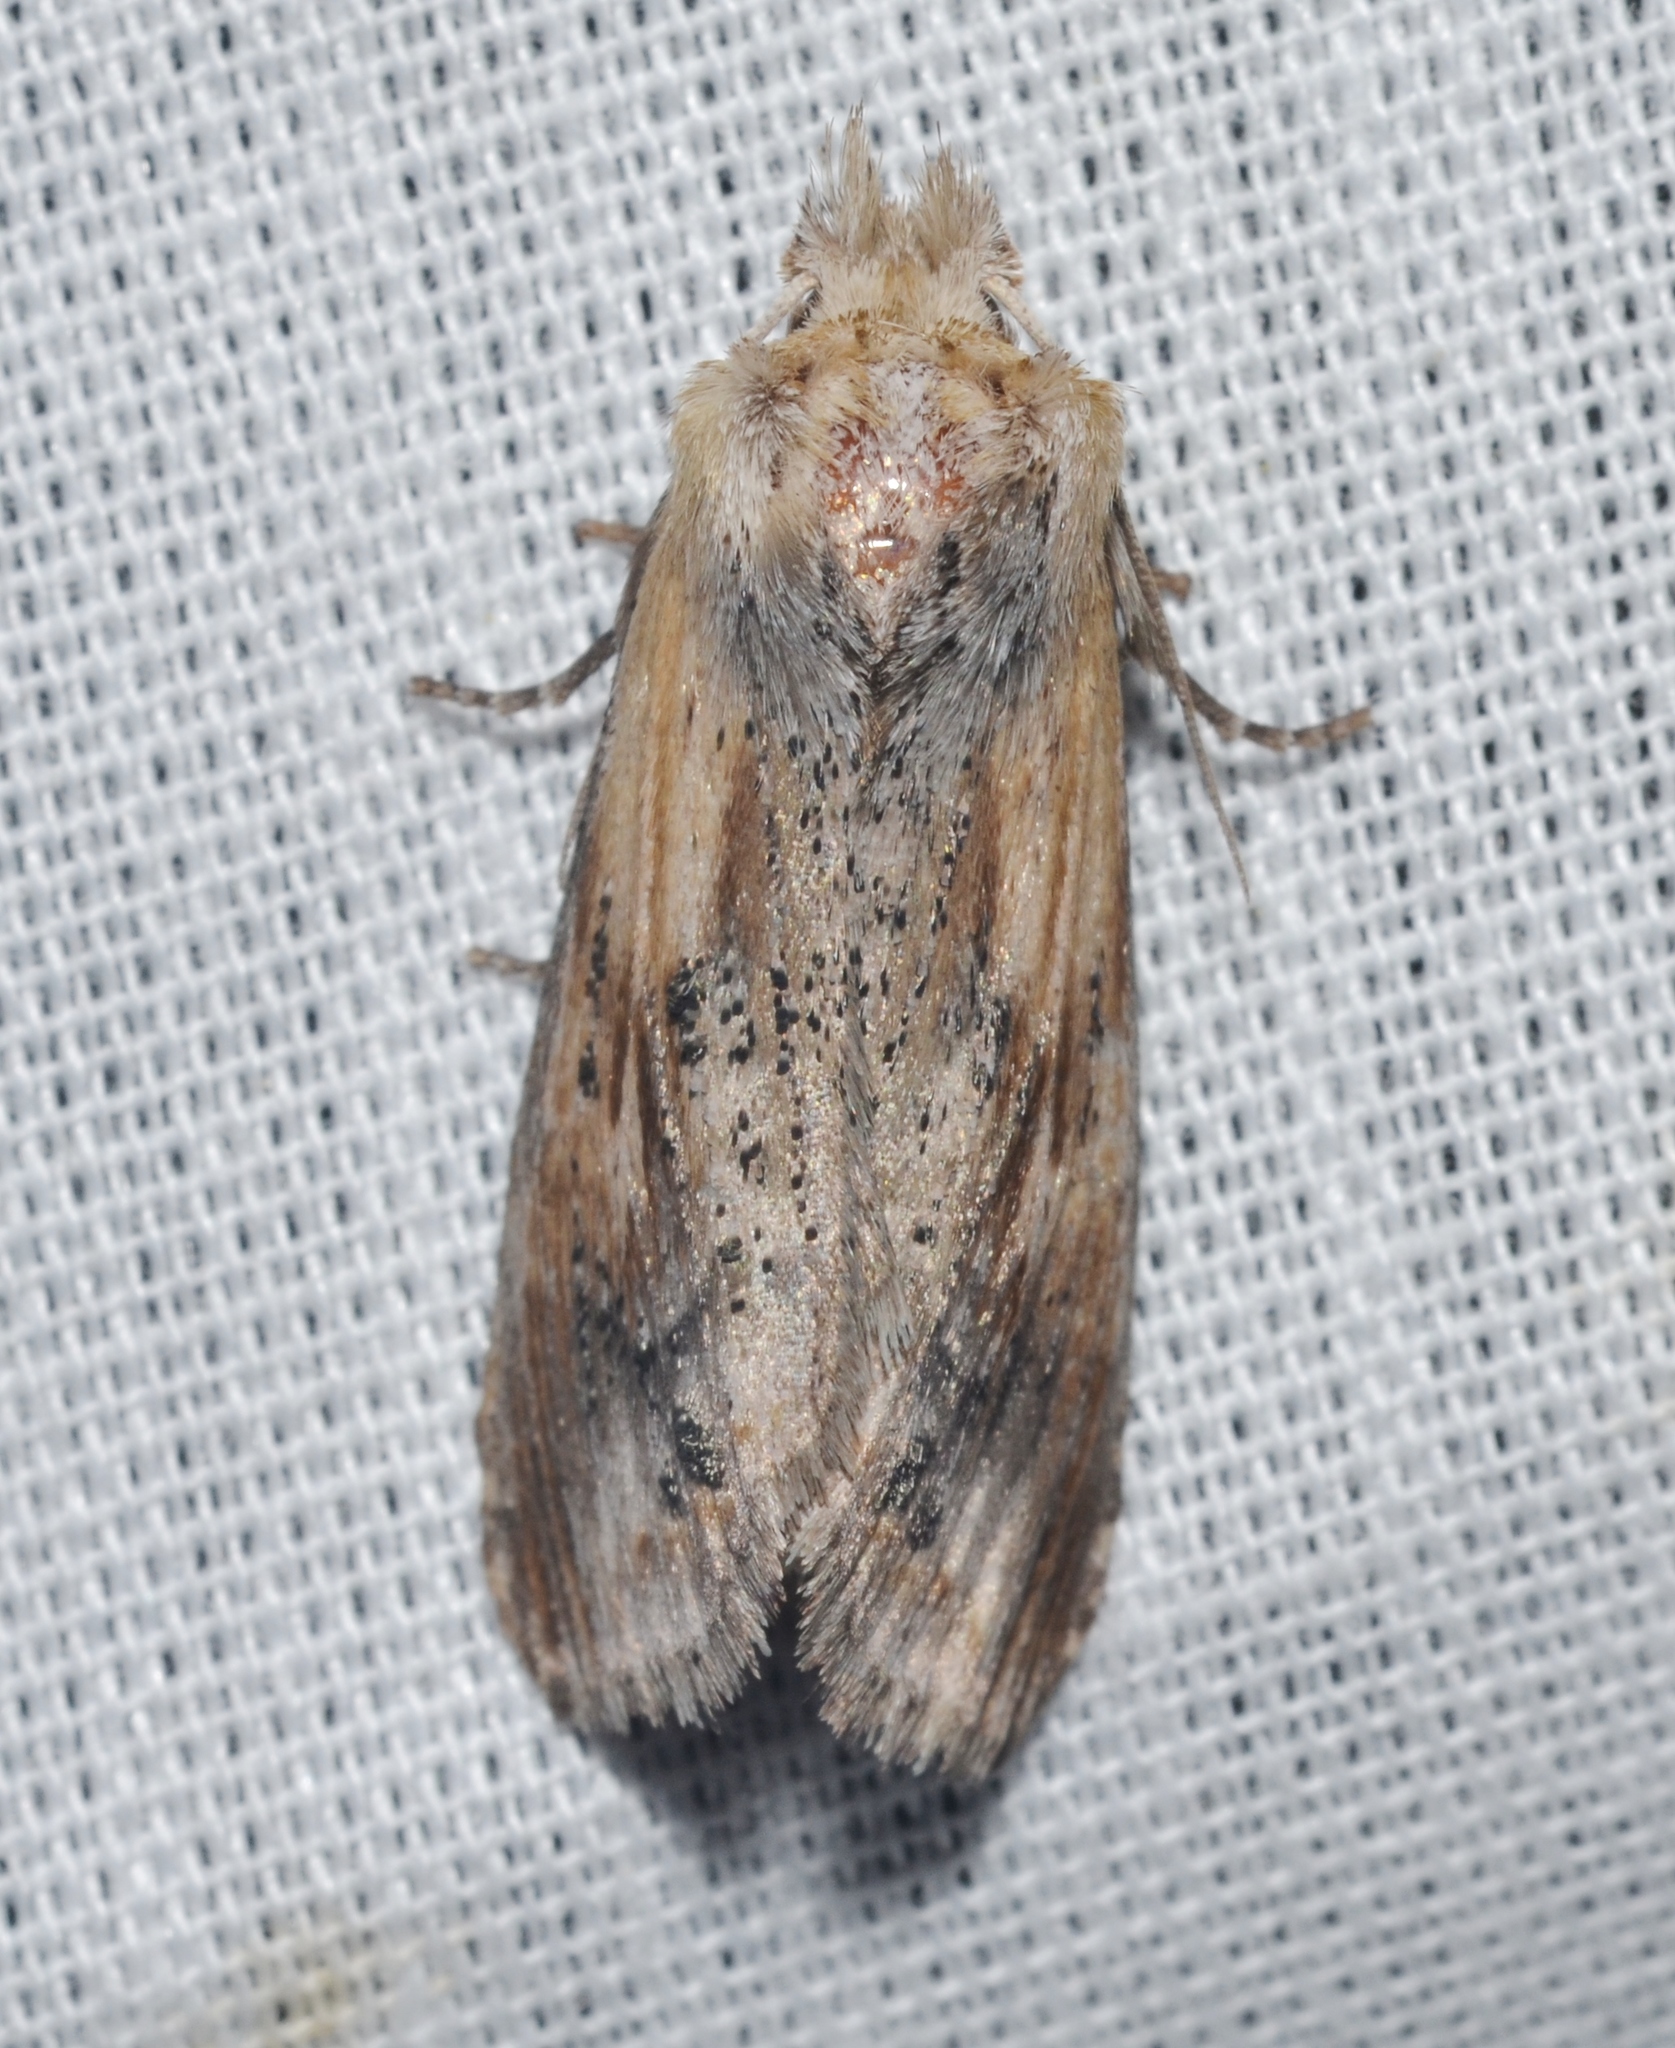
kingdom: Animalia
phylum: Arthropoda
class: Insecta
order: Lepidoptera
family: Notodontidae
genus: Dasylophia
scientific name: Dasylophia anguina
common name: Black-spotted prominent
